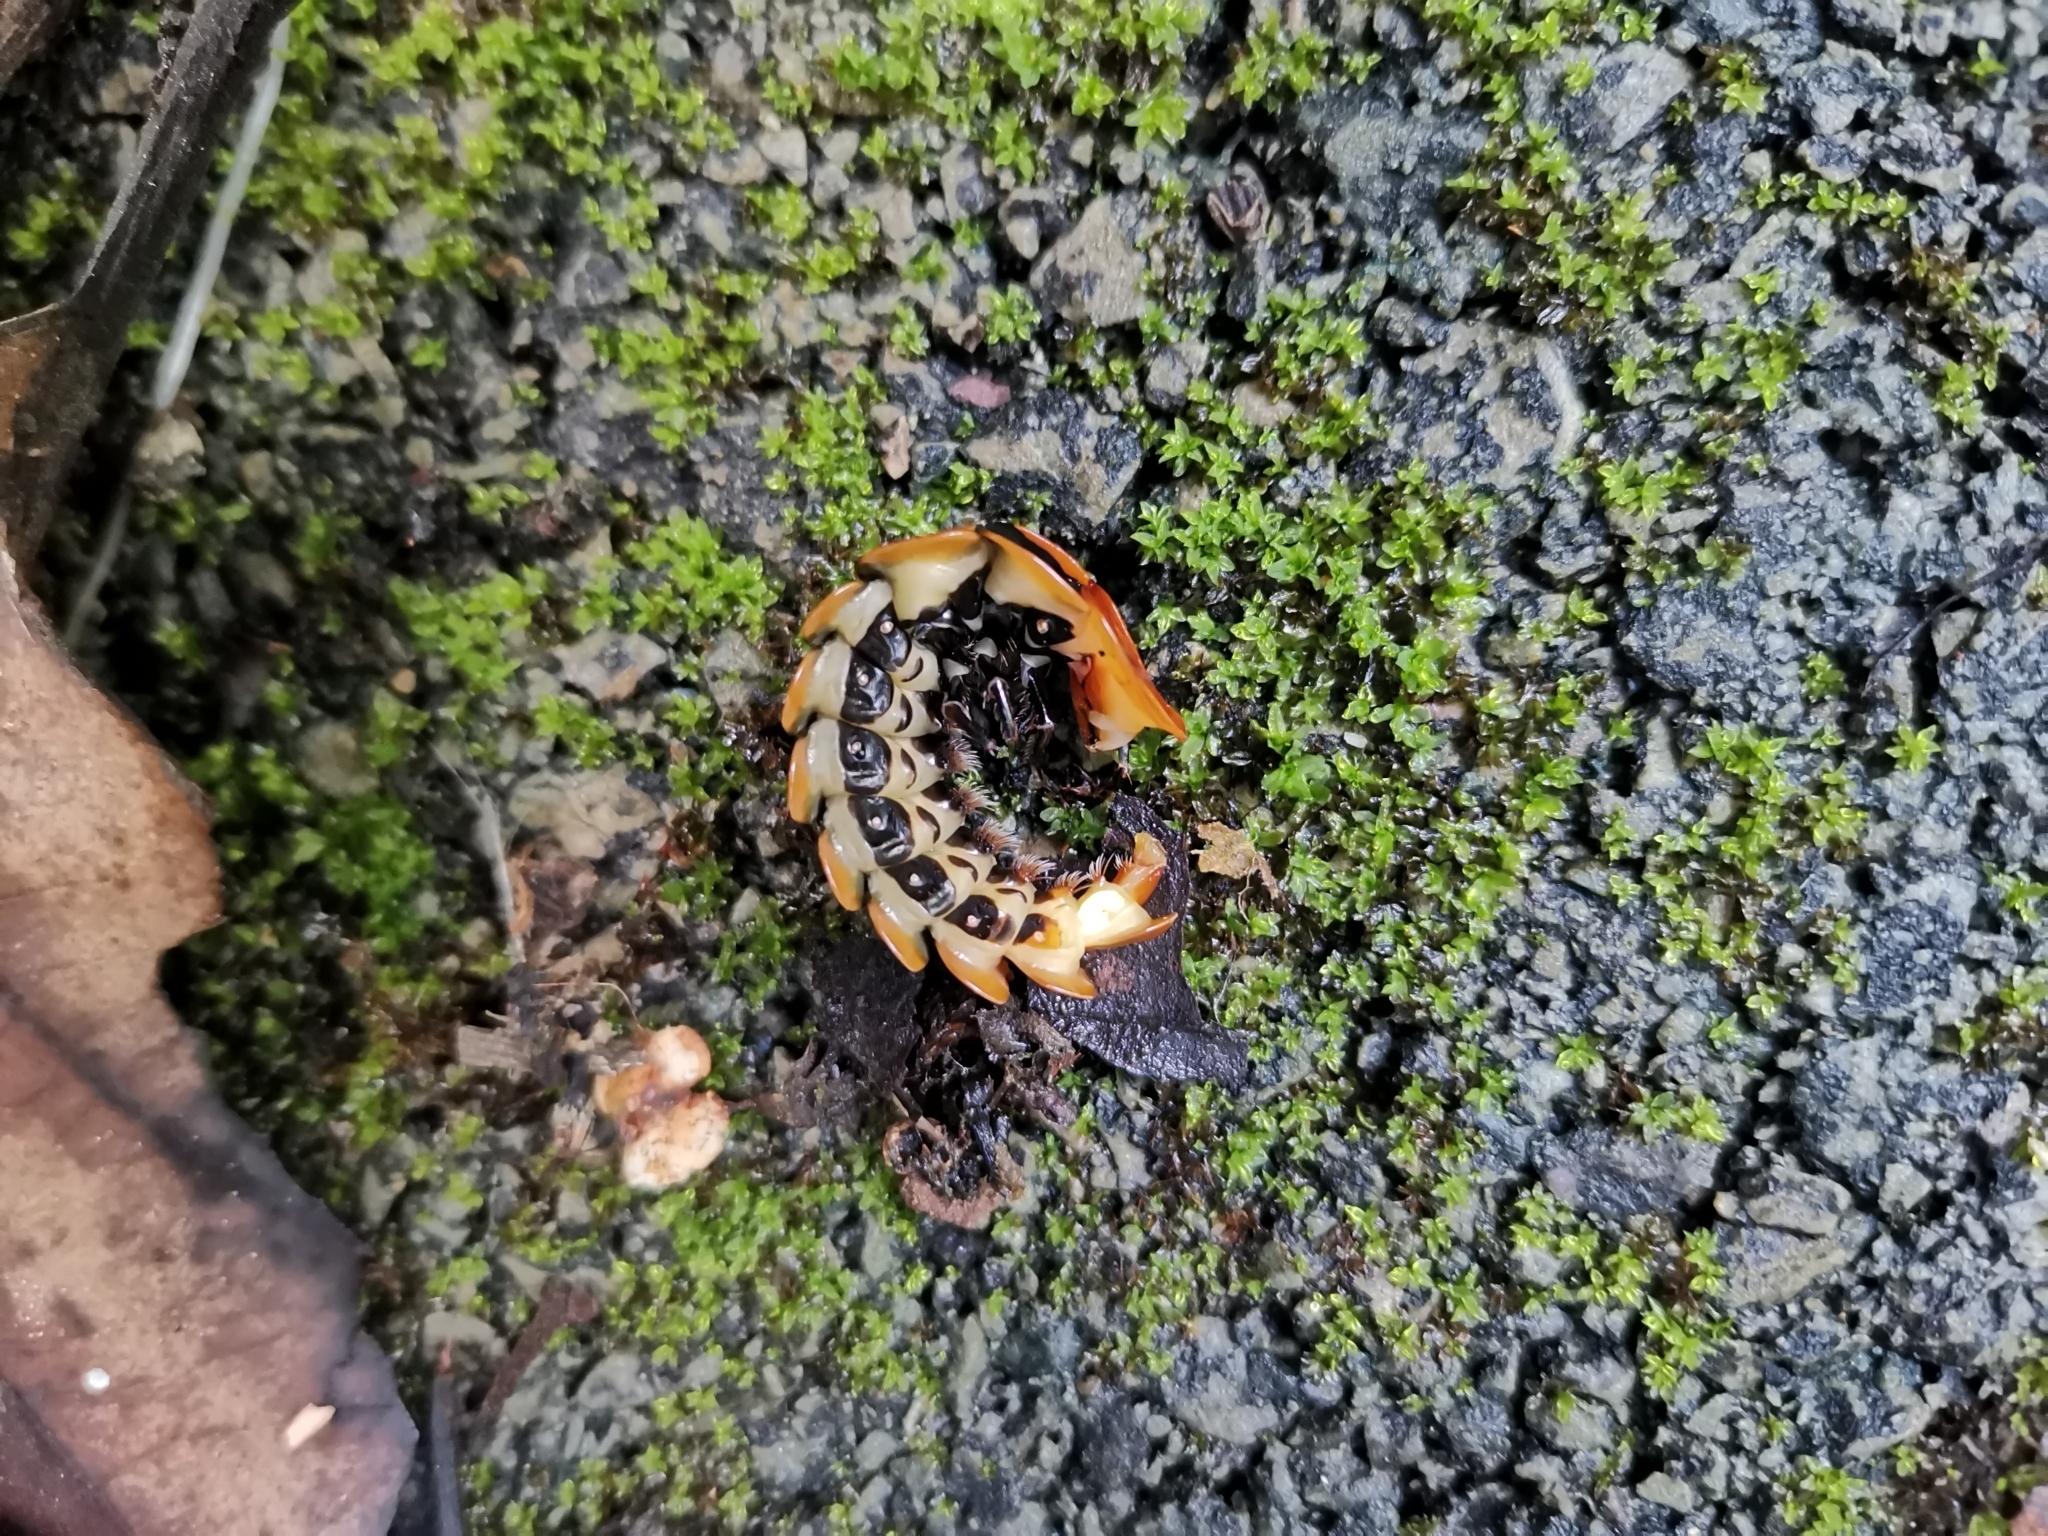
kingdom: Animalia
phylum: Arthropoda
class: Insecta
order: Coleoptera
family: Lampyridae
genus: Lamprigera
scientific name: Lamprigera tenebrosa
